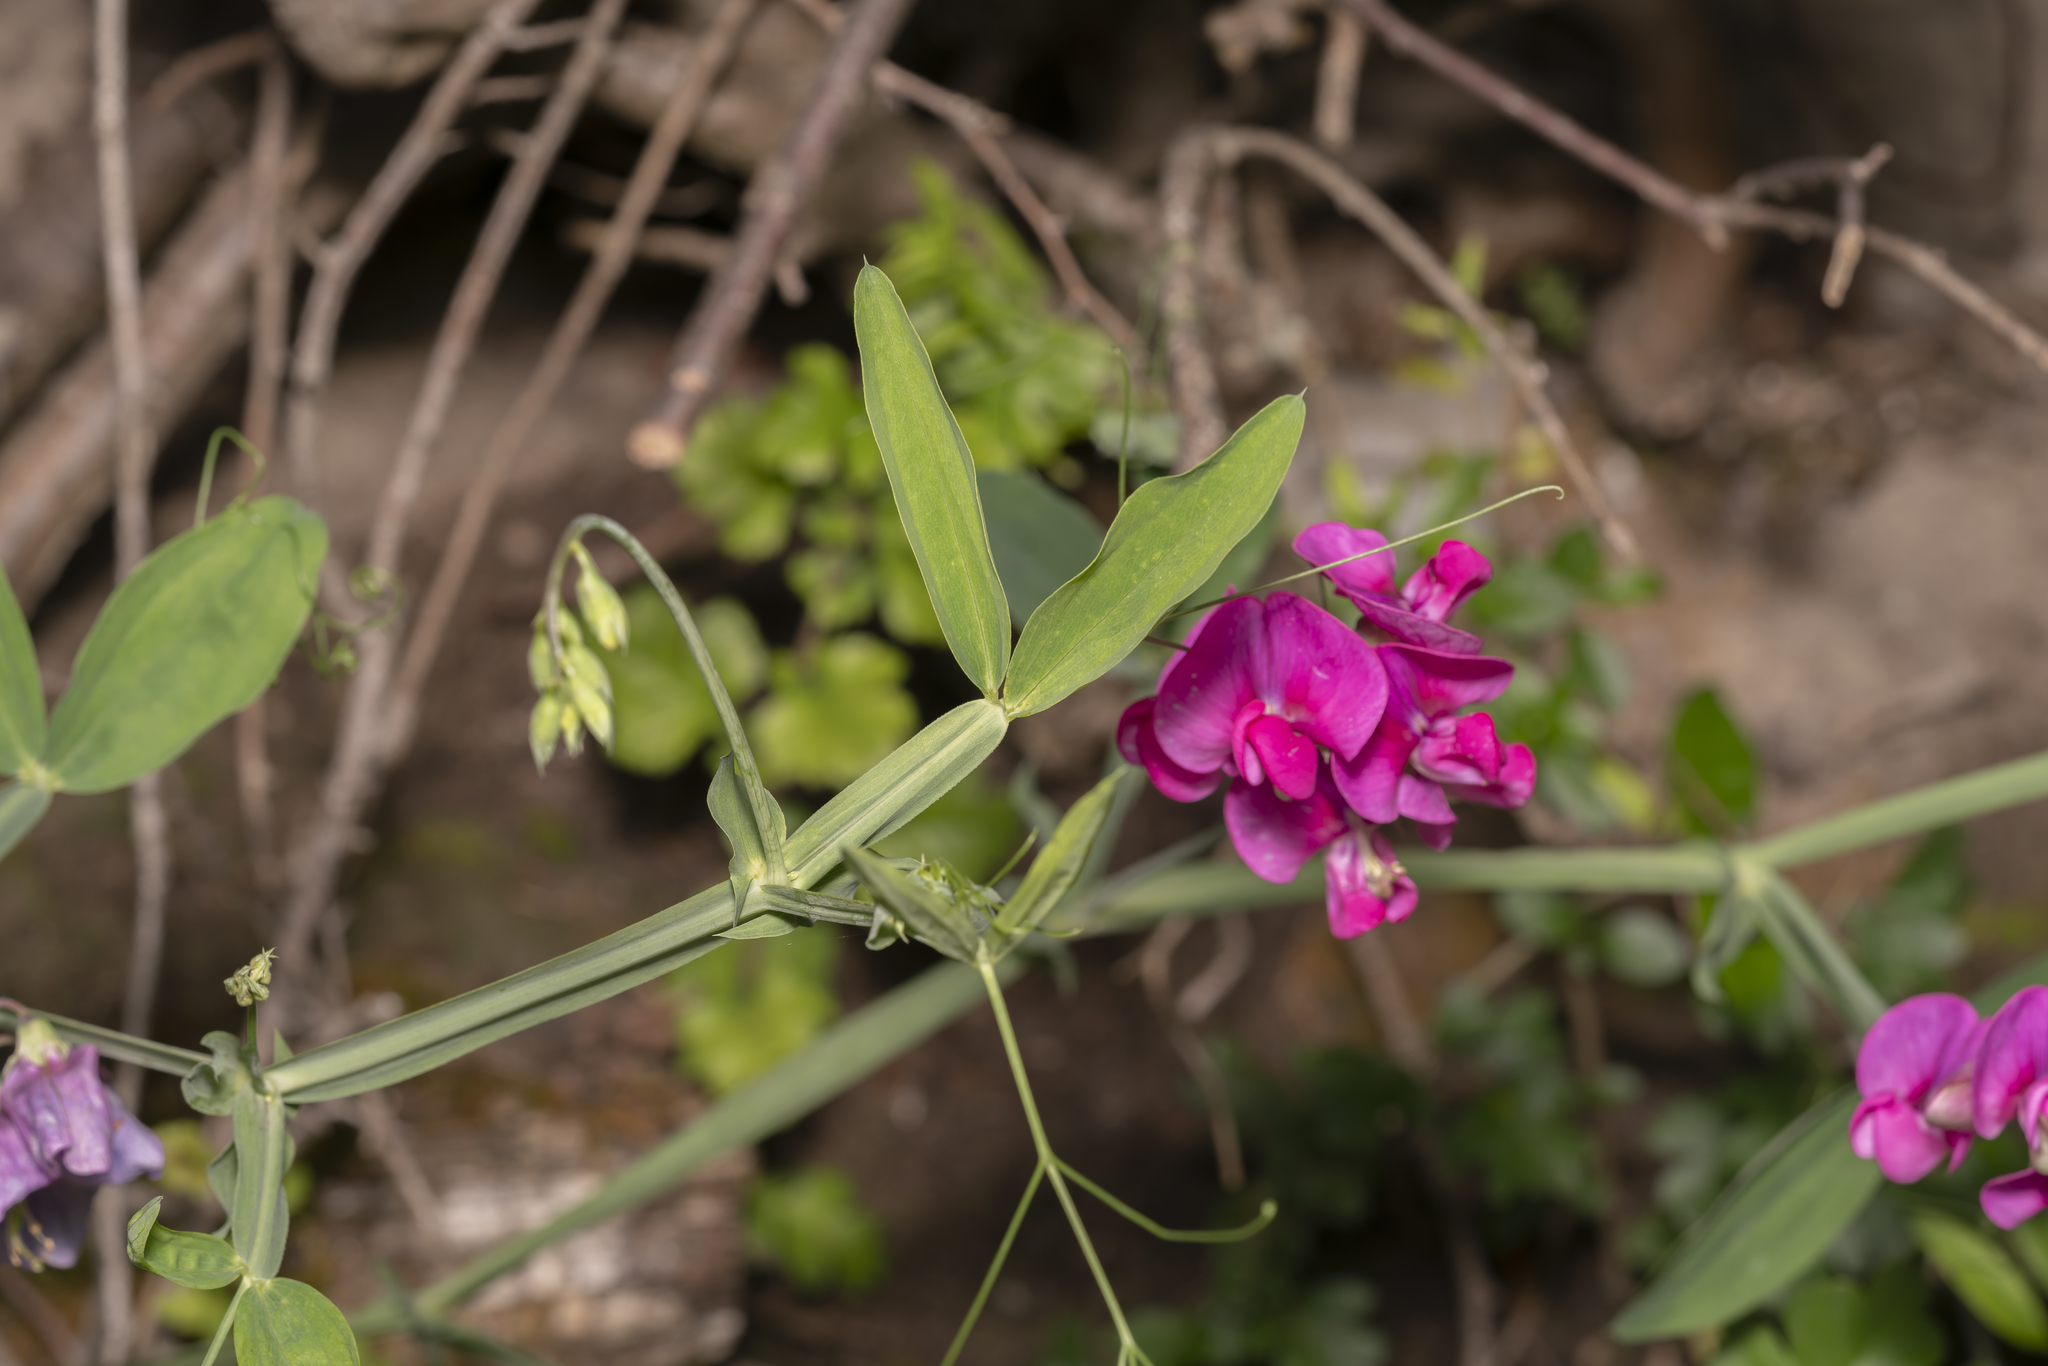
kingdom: Plantae
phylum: Tracheophyta
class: Magnoliopsida
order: Fabales
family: Fabaceae
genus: Lathyrus
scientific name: Lathyrus latifolius
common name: Perennial pea
